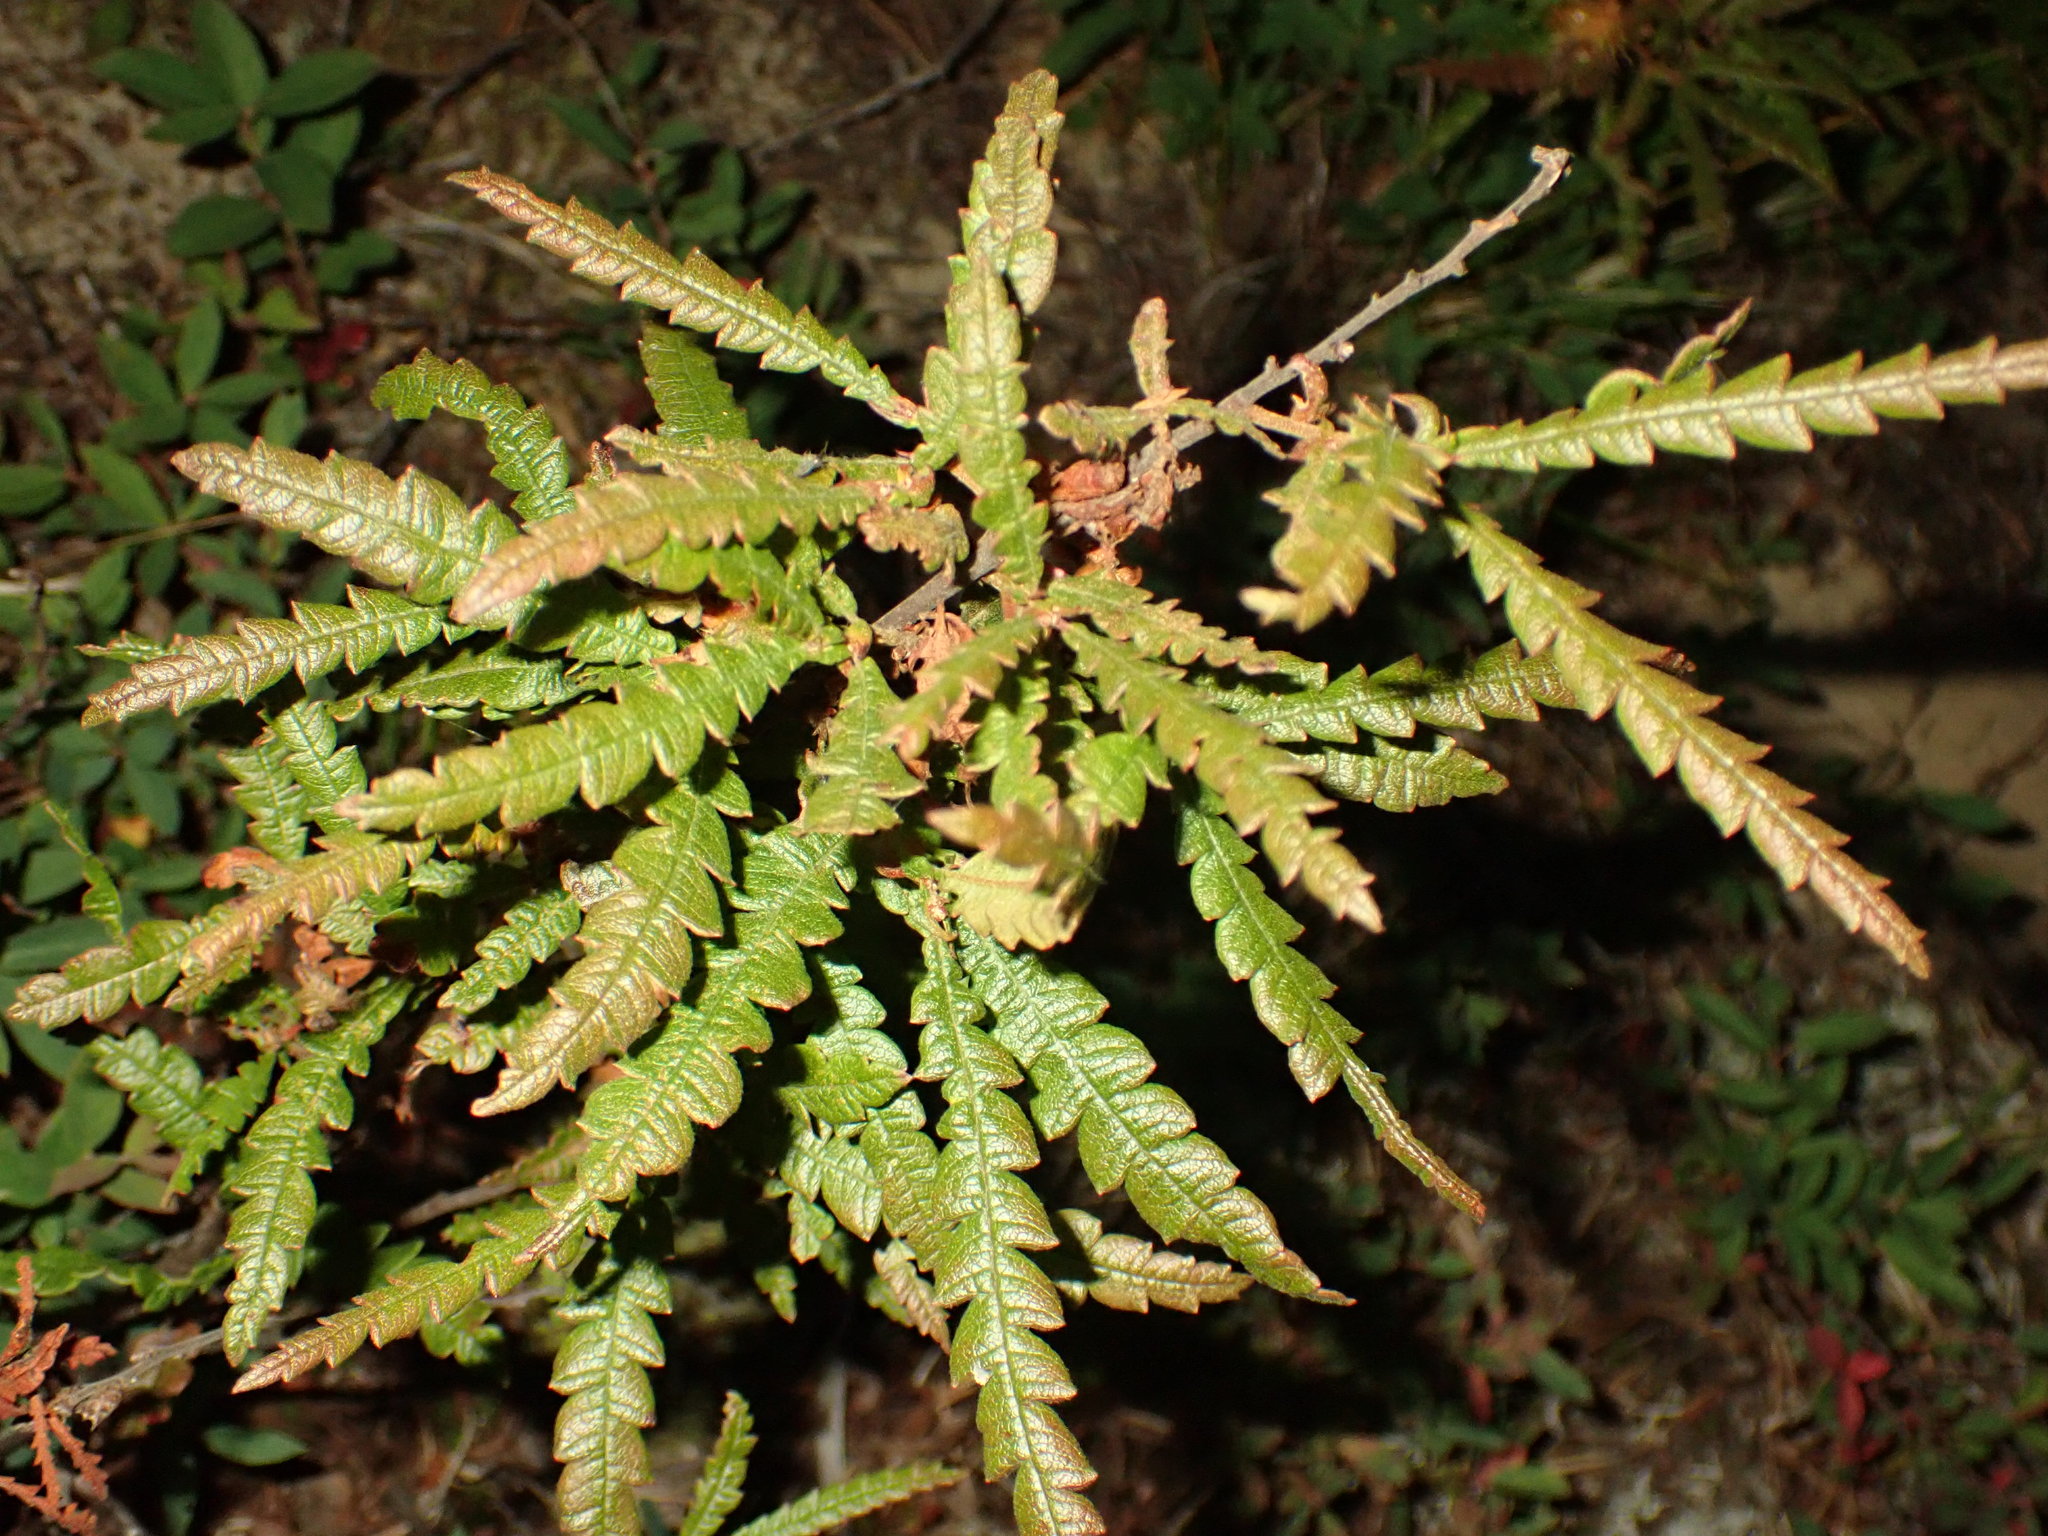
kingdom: Plantae
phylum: Tracheophyta
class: Magnoliopsida
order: Fagales
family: Myricaceae
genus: Comptonia
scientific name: Comptonia peregrina
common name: Sweet-fern
